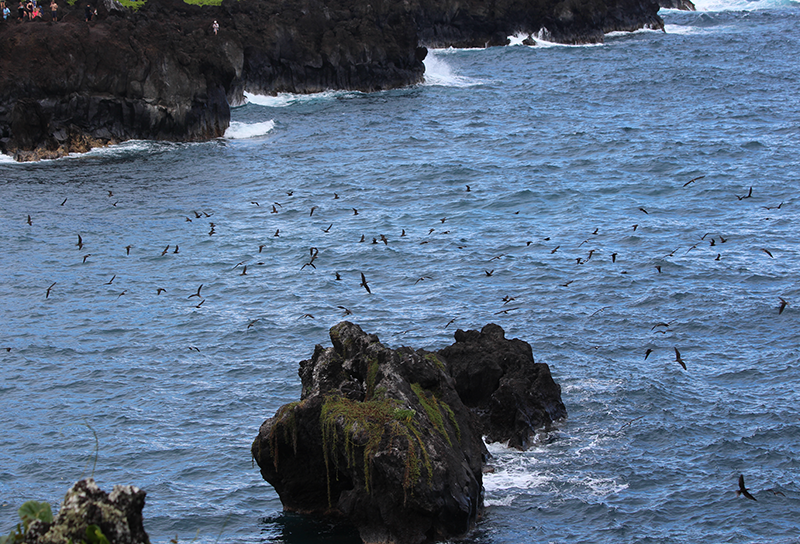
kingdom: Animalia
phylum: Chordata
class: Aves
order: Charadriiformes
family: Laridae
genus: Anous
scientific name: Anous minutus
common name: Black noddy
